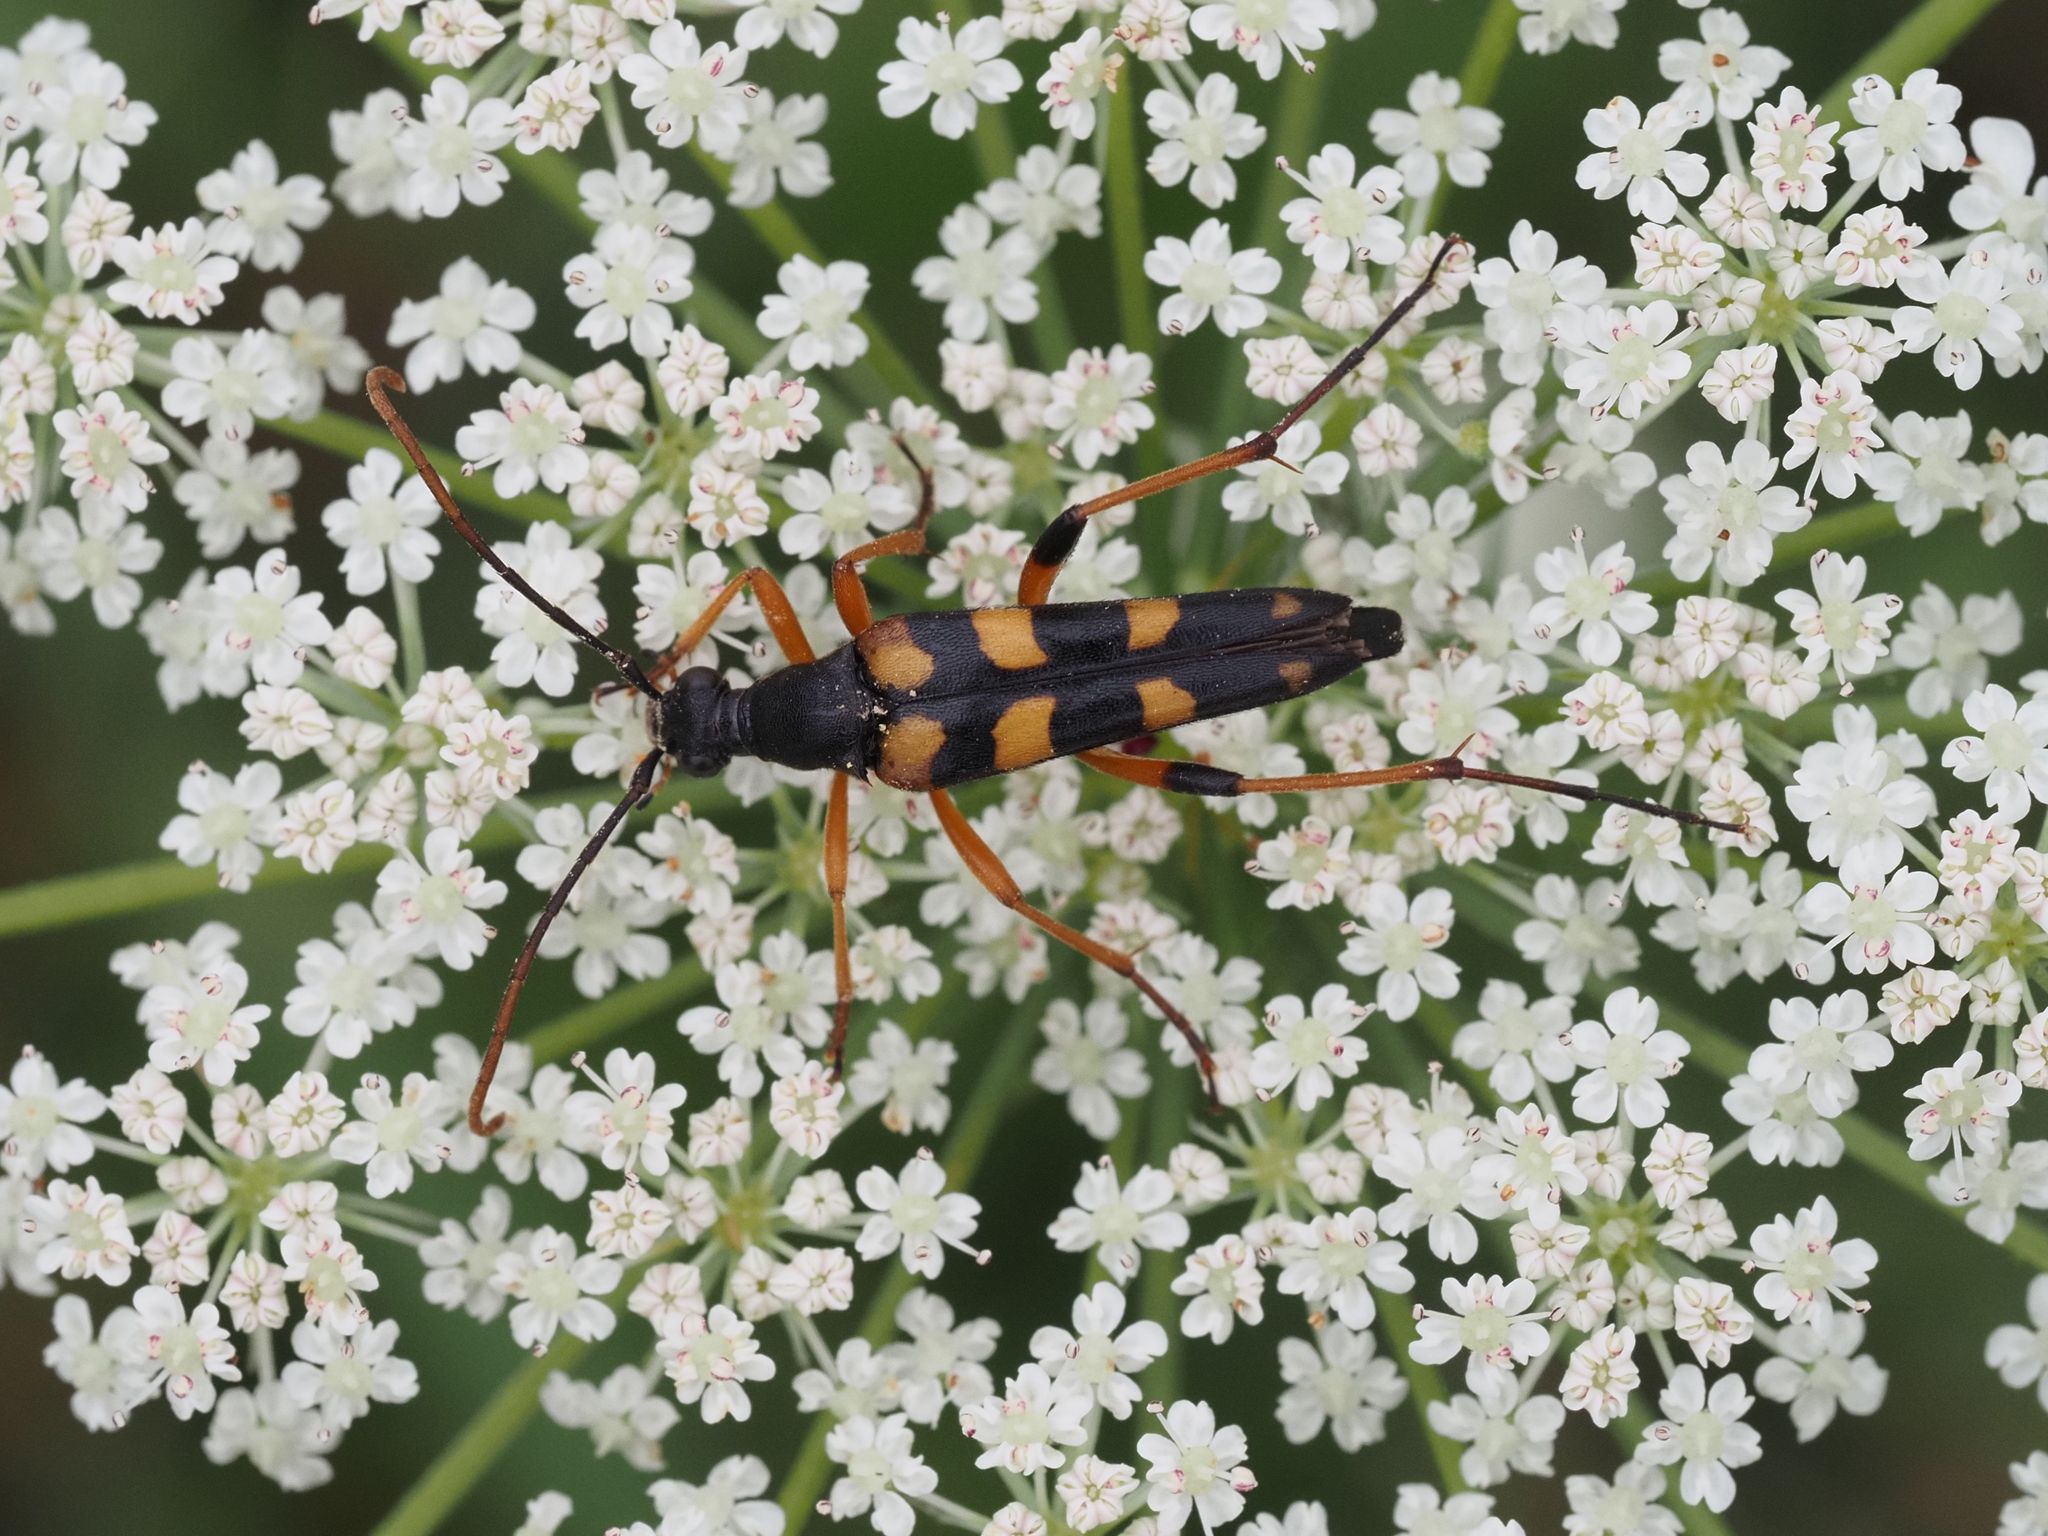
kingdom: Animalia
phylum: Arthropoda
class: Insecta
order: Coleoptera
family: Cerambycidae
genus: Strangalia
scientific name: Strangalia attenuata
